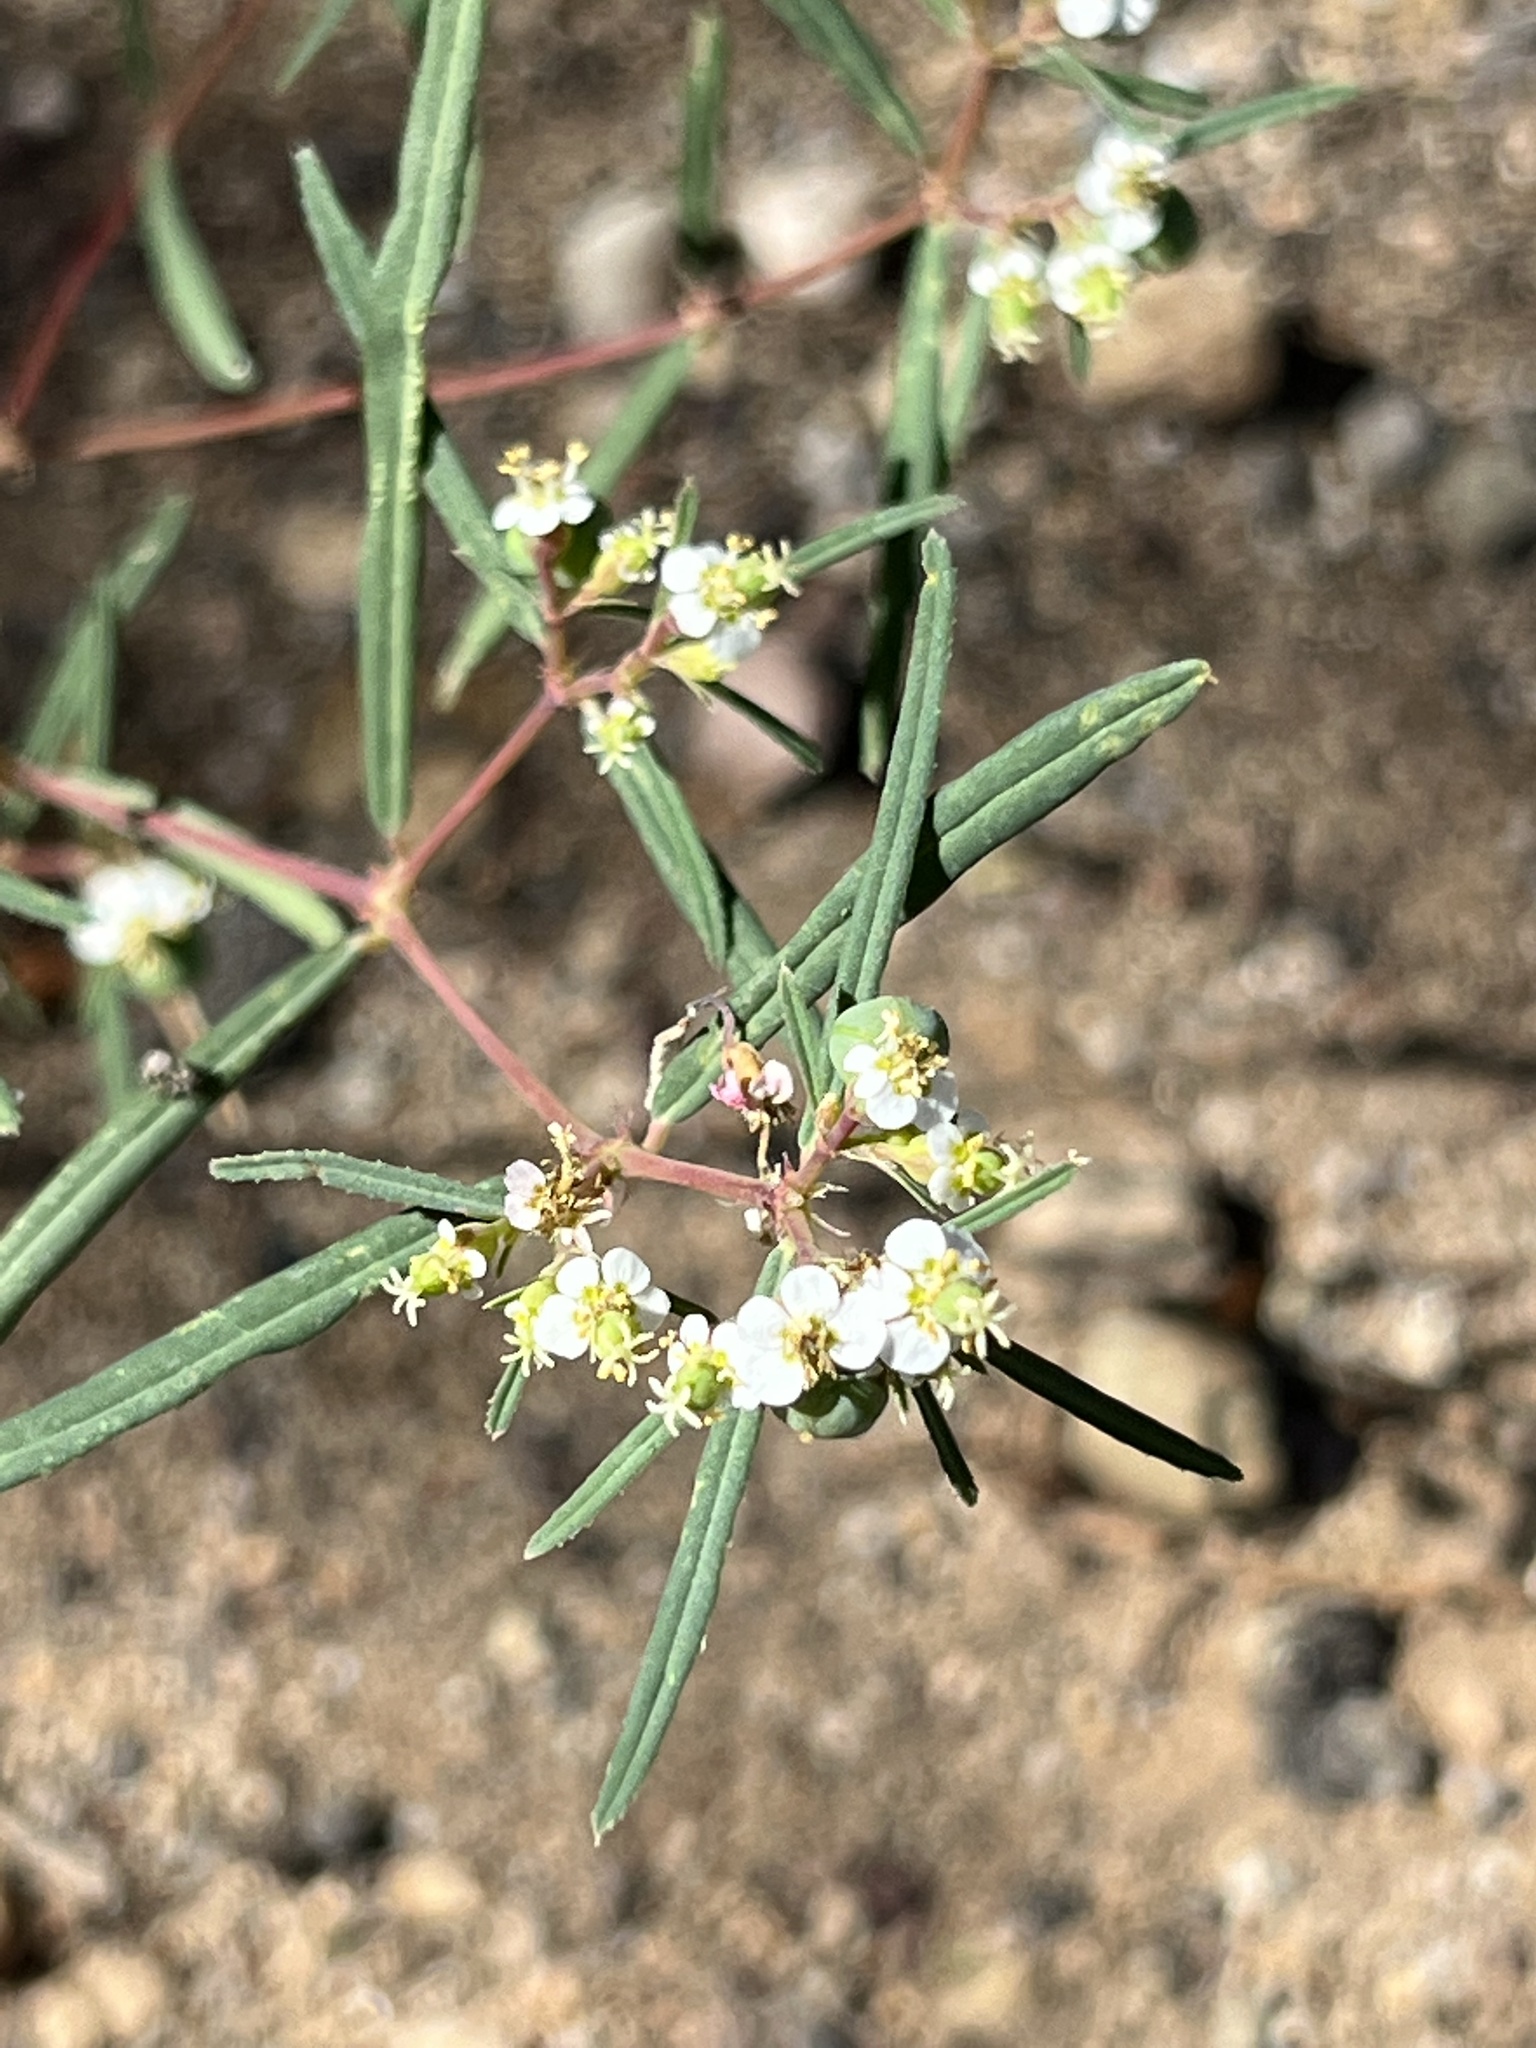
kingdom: Plantae
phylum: Tracheophyta
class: Magnoliopsida
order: Malpighiales
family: Euphorbiaceae
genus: Euphorbia
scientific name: Euphorbia florida
